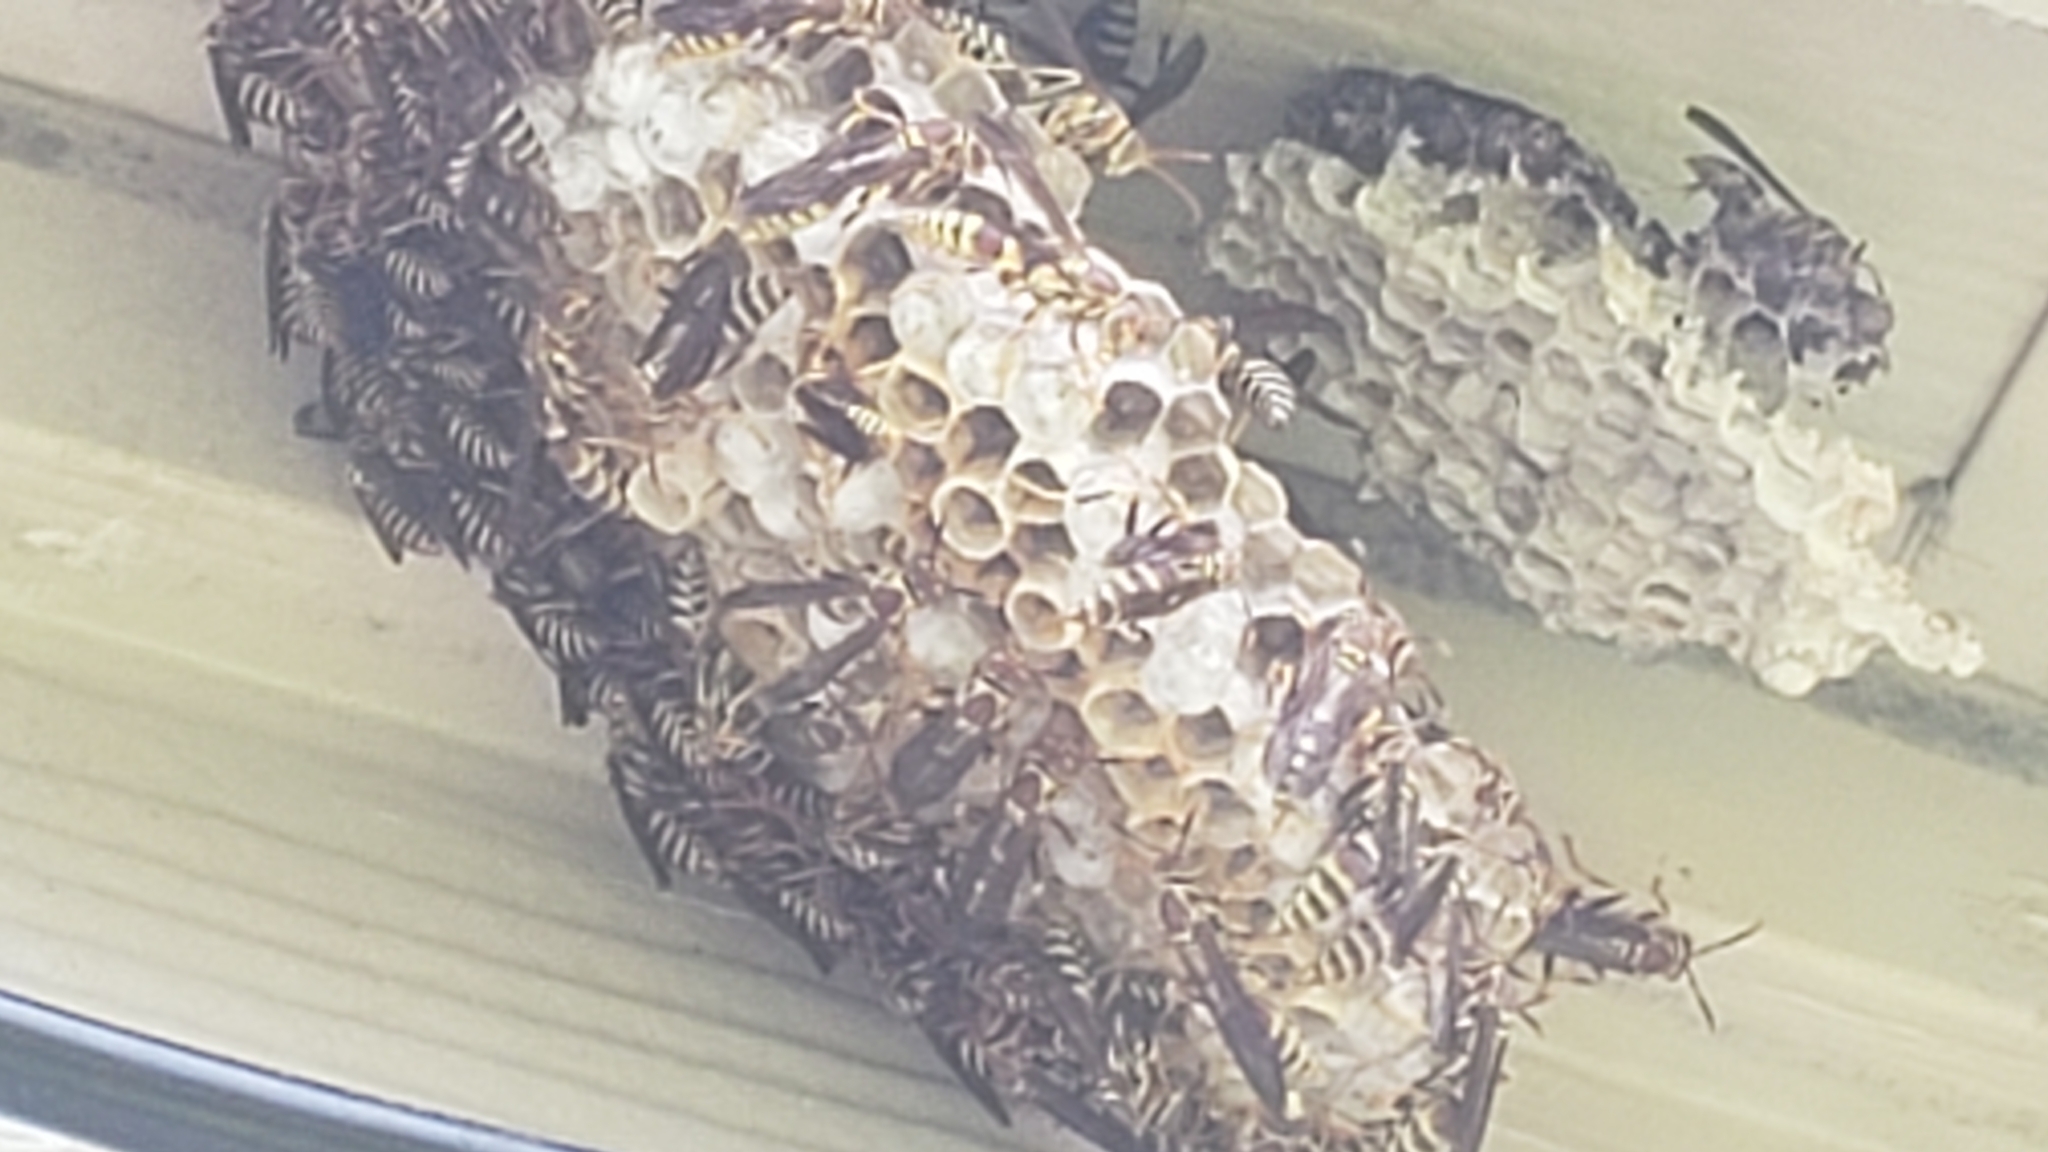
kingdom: Animalia
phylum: Arthropoda
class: Insecta
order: Hymenoptera
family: Eumenidae
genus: Polistes
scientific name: Polistes exclamans
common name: Paper wasp
